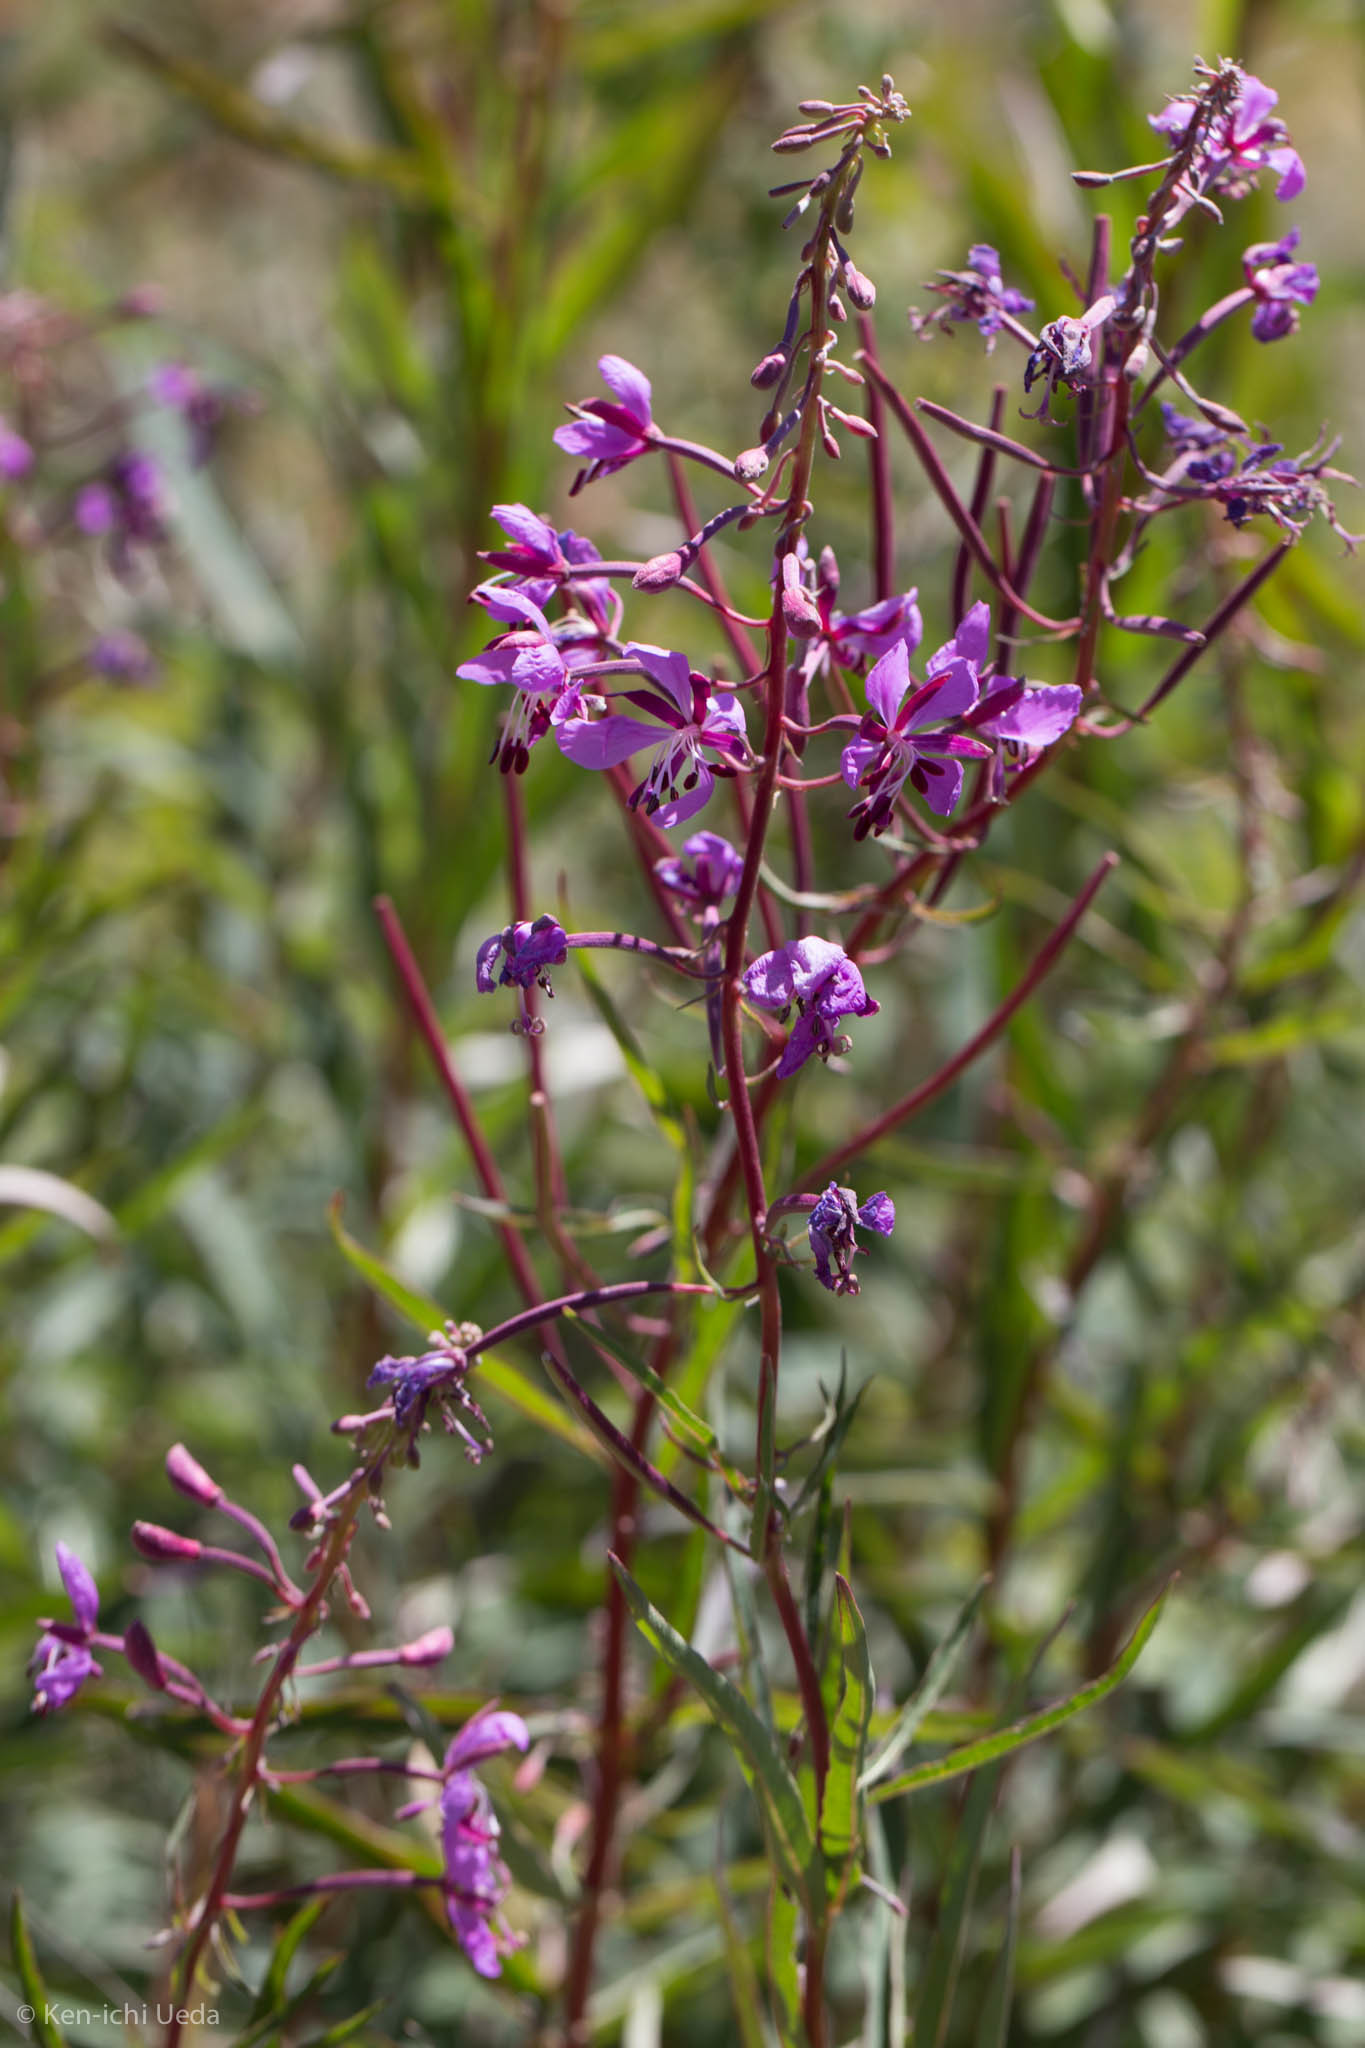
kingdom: Plantae
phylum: Tracheophyta
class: Magnoliopsida
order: Myrtales
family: Onagraceae
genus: Chamaenerion
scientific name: Chamaenerion angustifolium
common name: Fireweed
